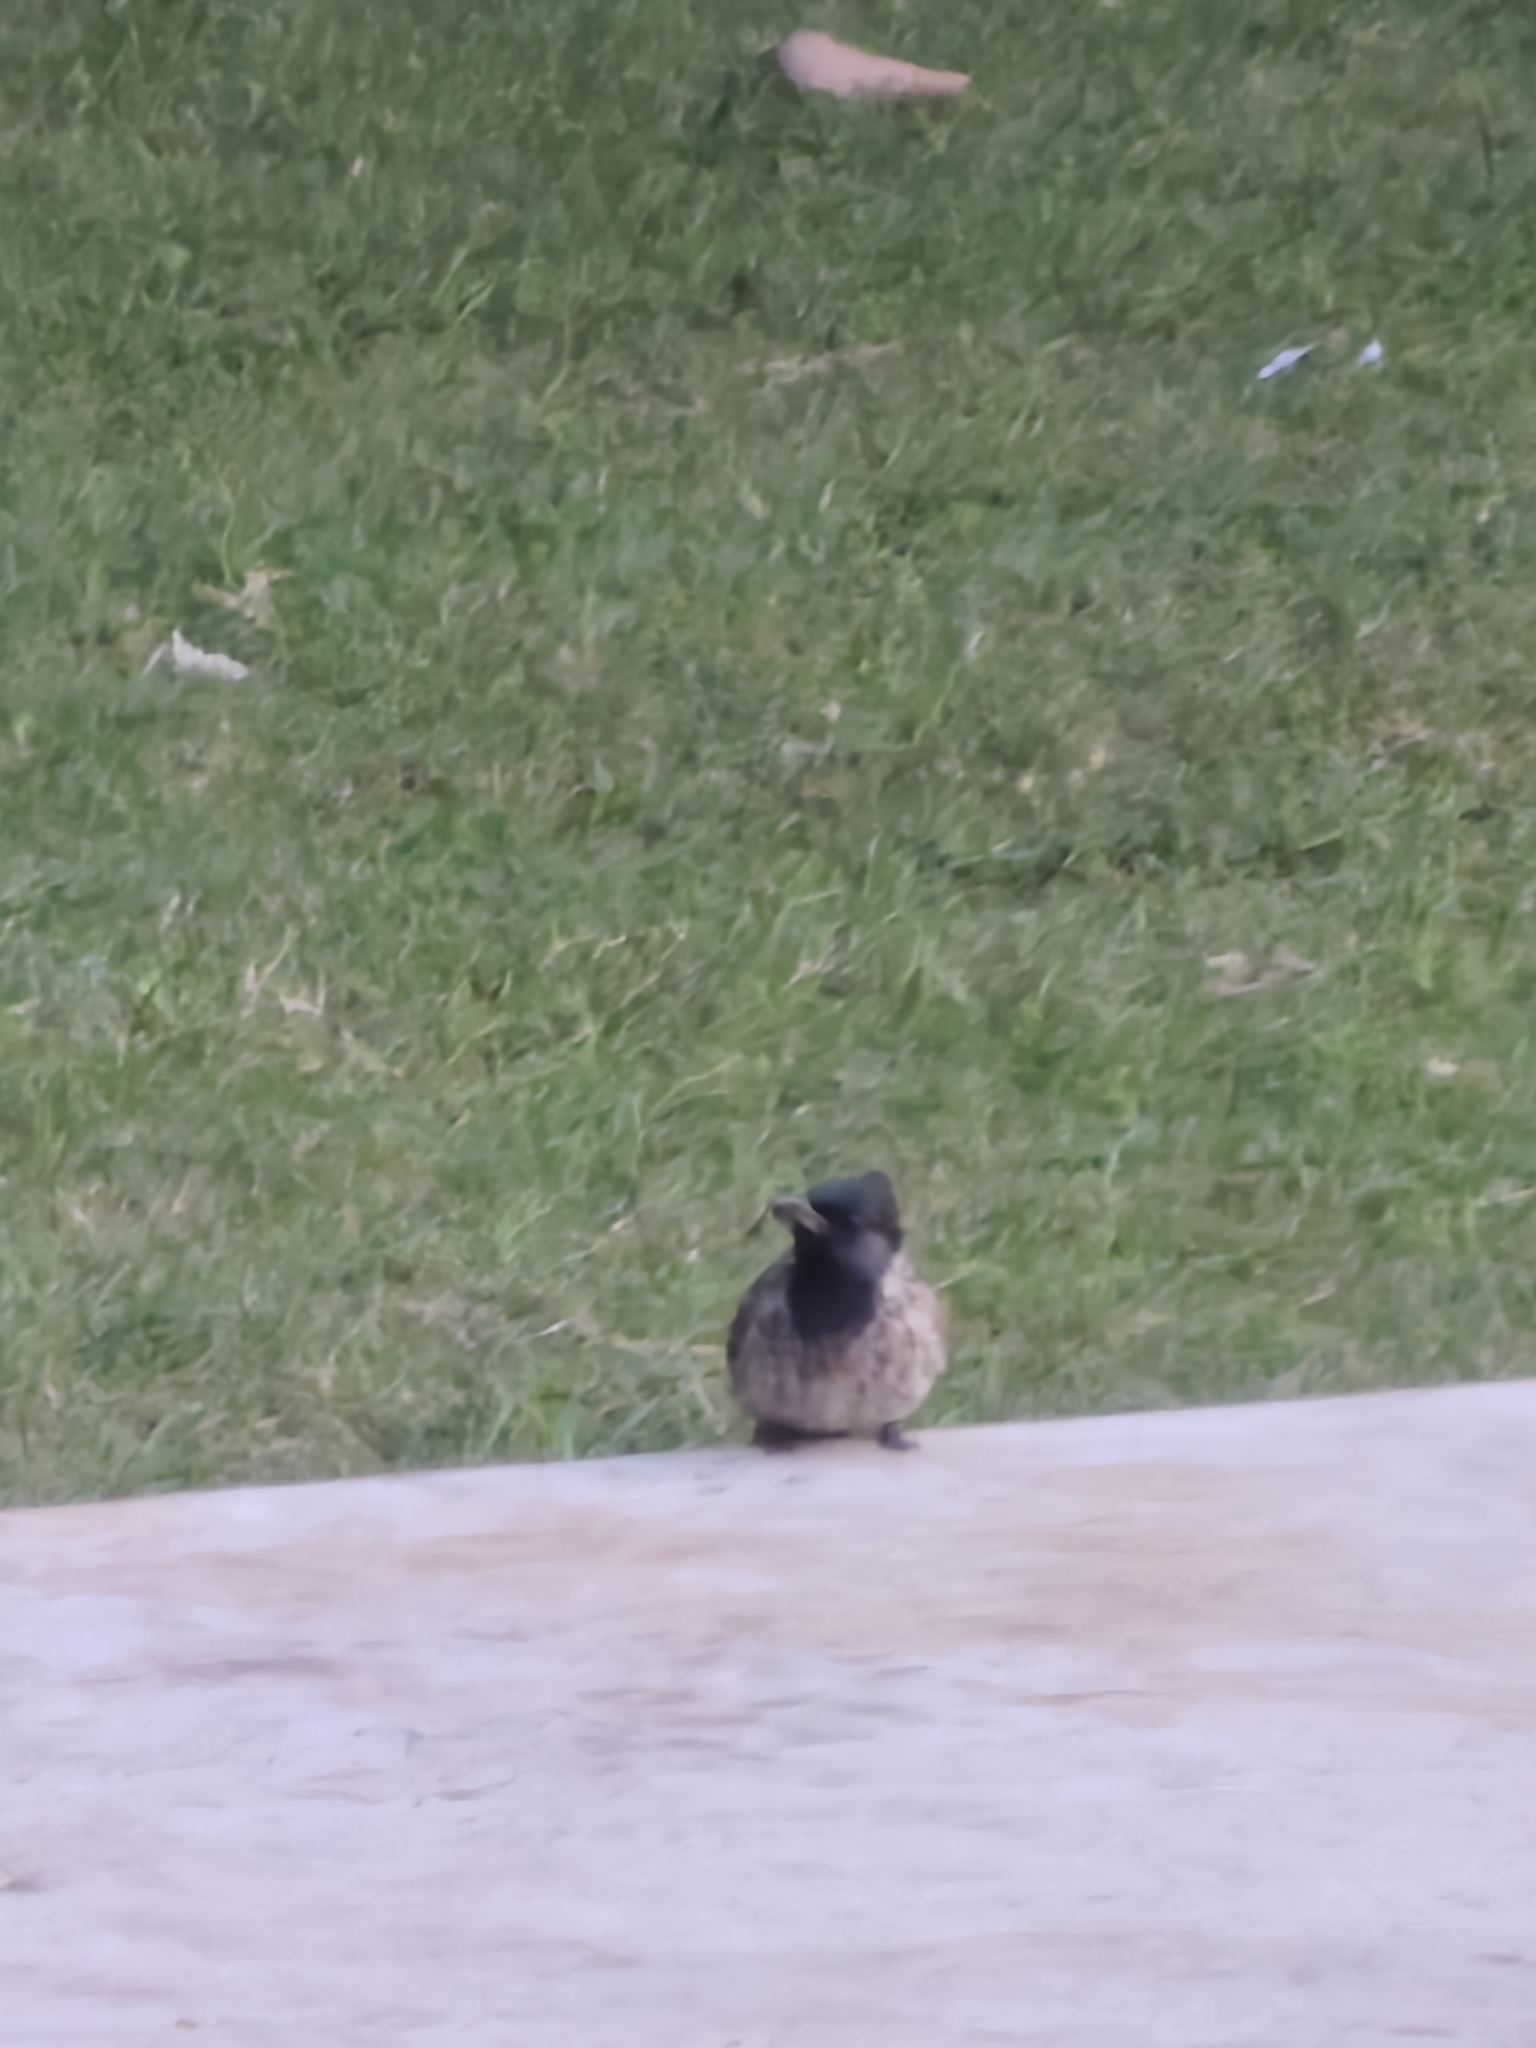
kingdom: Animalia
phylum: Chordata
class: Aves
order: Passeriformes
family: Pycnonotidae
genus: Pycnonotus
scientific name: Pycnonotus cafer
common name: Red-vented bulbul
